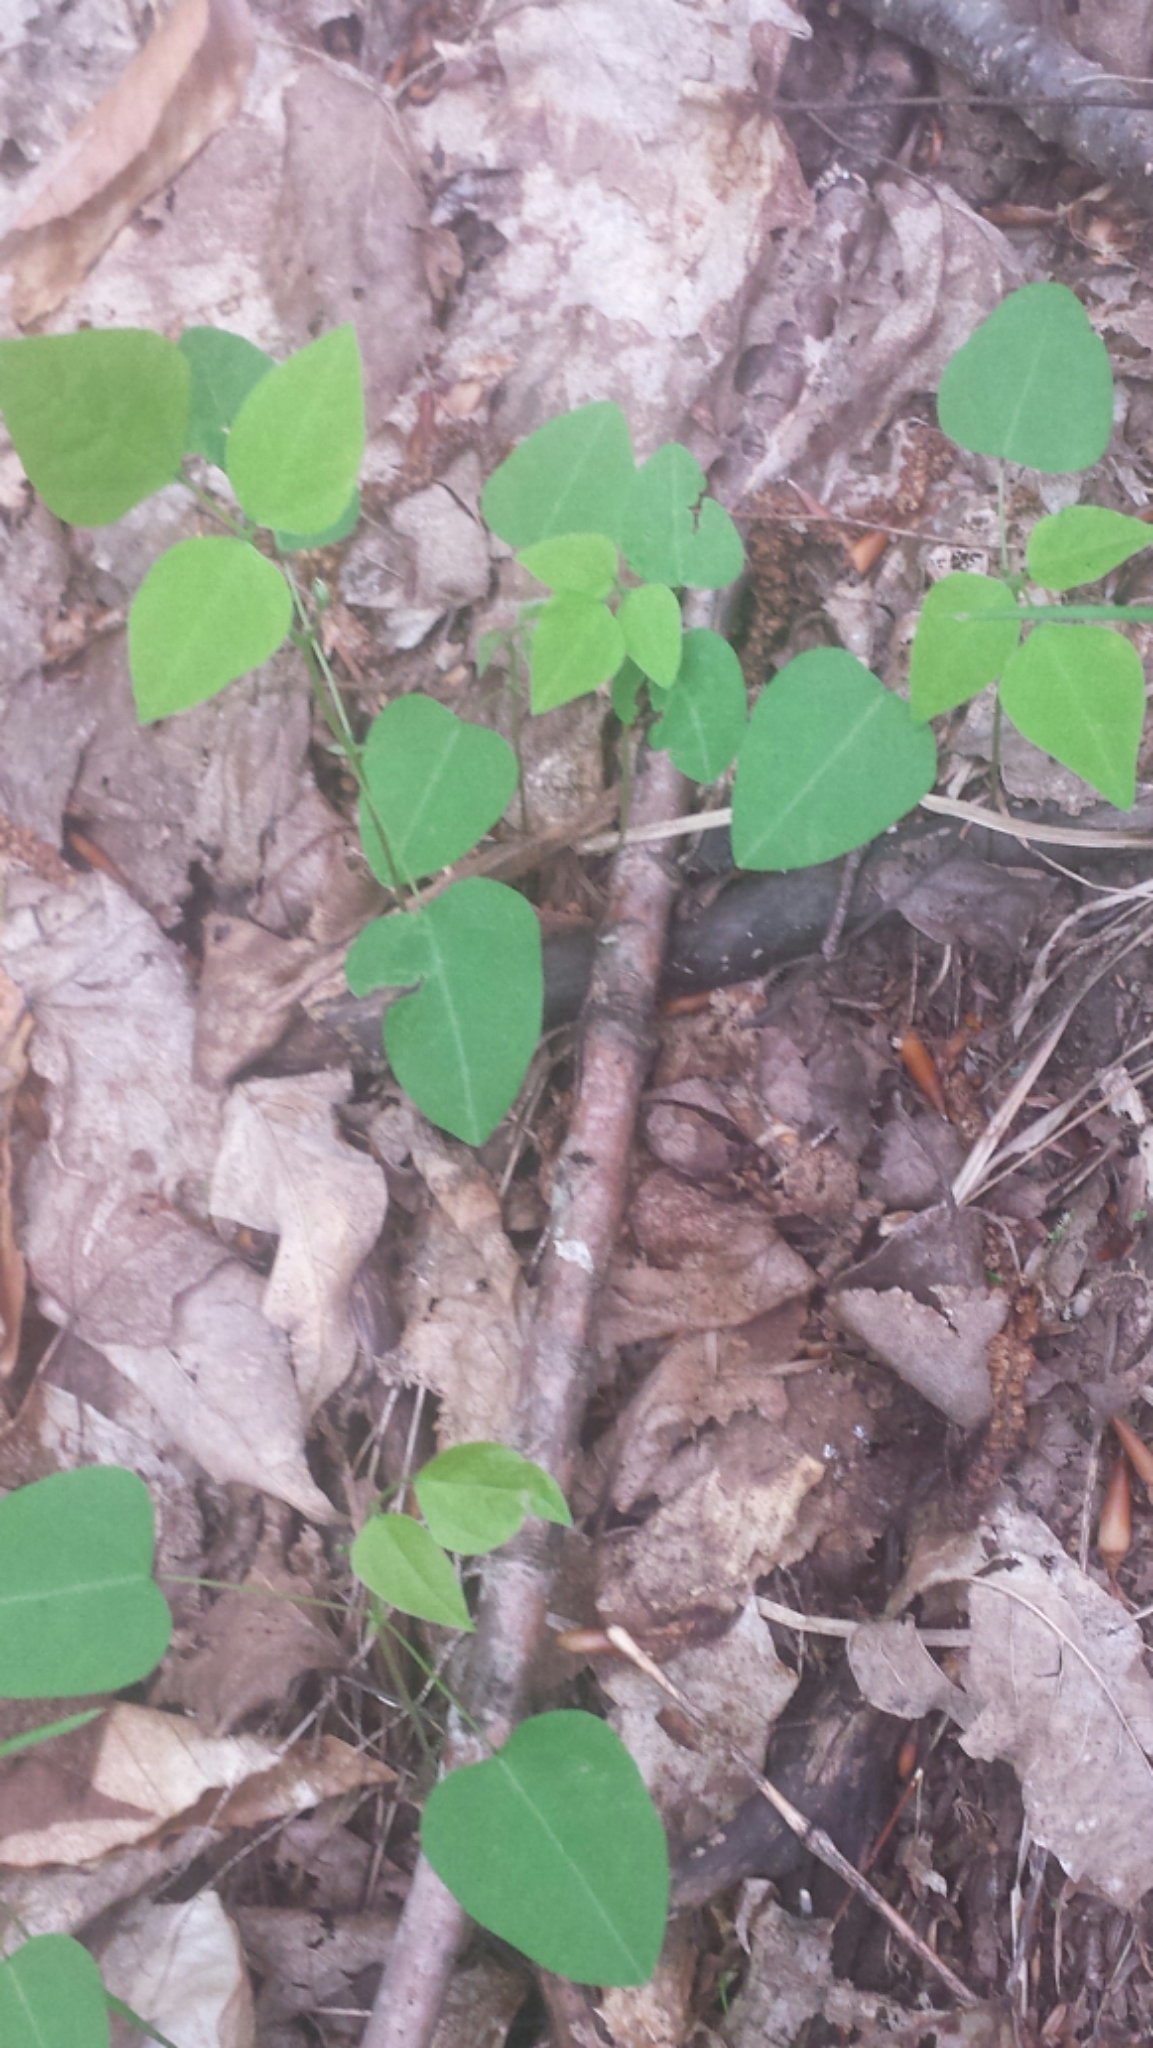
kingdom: Plantae
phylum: Tracheophyta
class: Magnoliopsida
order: Fabales
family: Fabaceae
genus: Amphicarpaea
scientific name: Amphicarpaea bracteata
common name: American hog peanut
